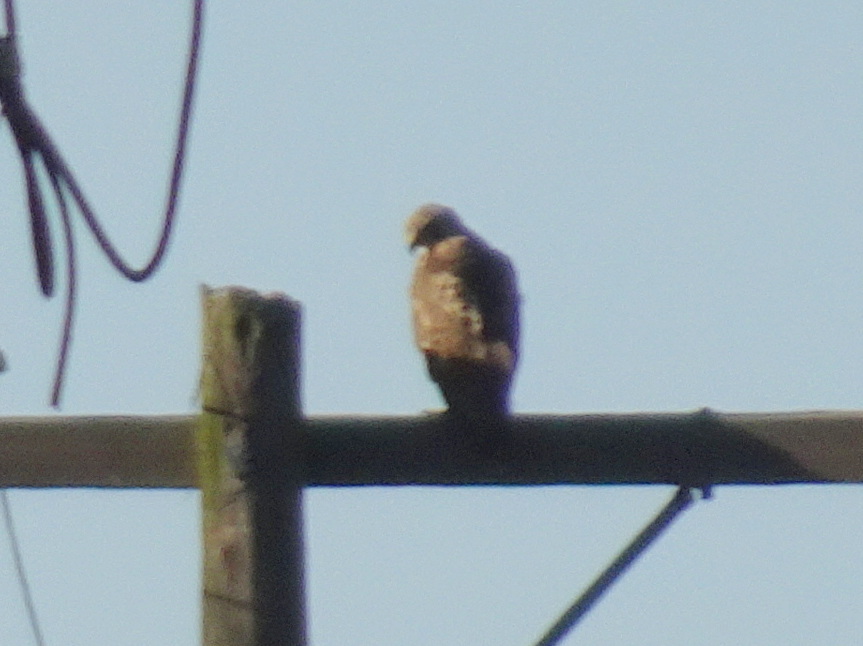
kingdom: Animalia
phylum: Chordata
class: Aves
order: Accipitriformes
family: Accipitridae
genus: Buteo
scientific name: Buteo jamaicensis
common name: Red-tailed hawk
